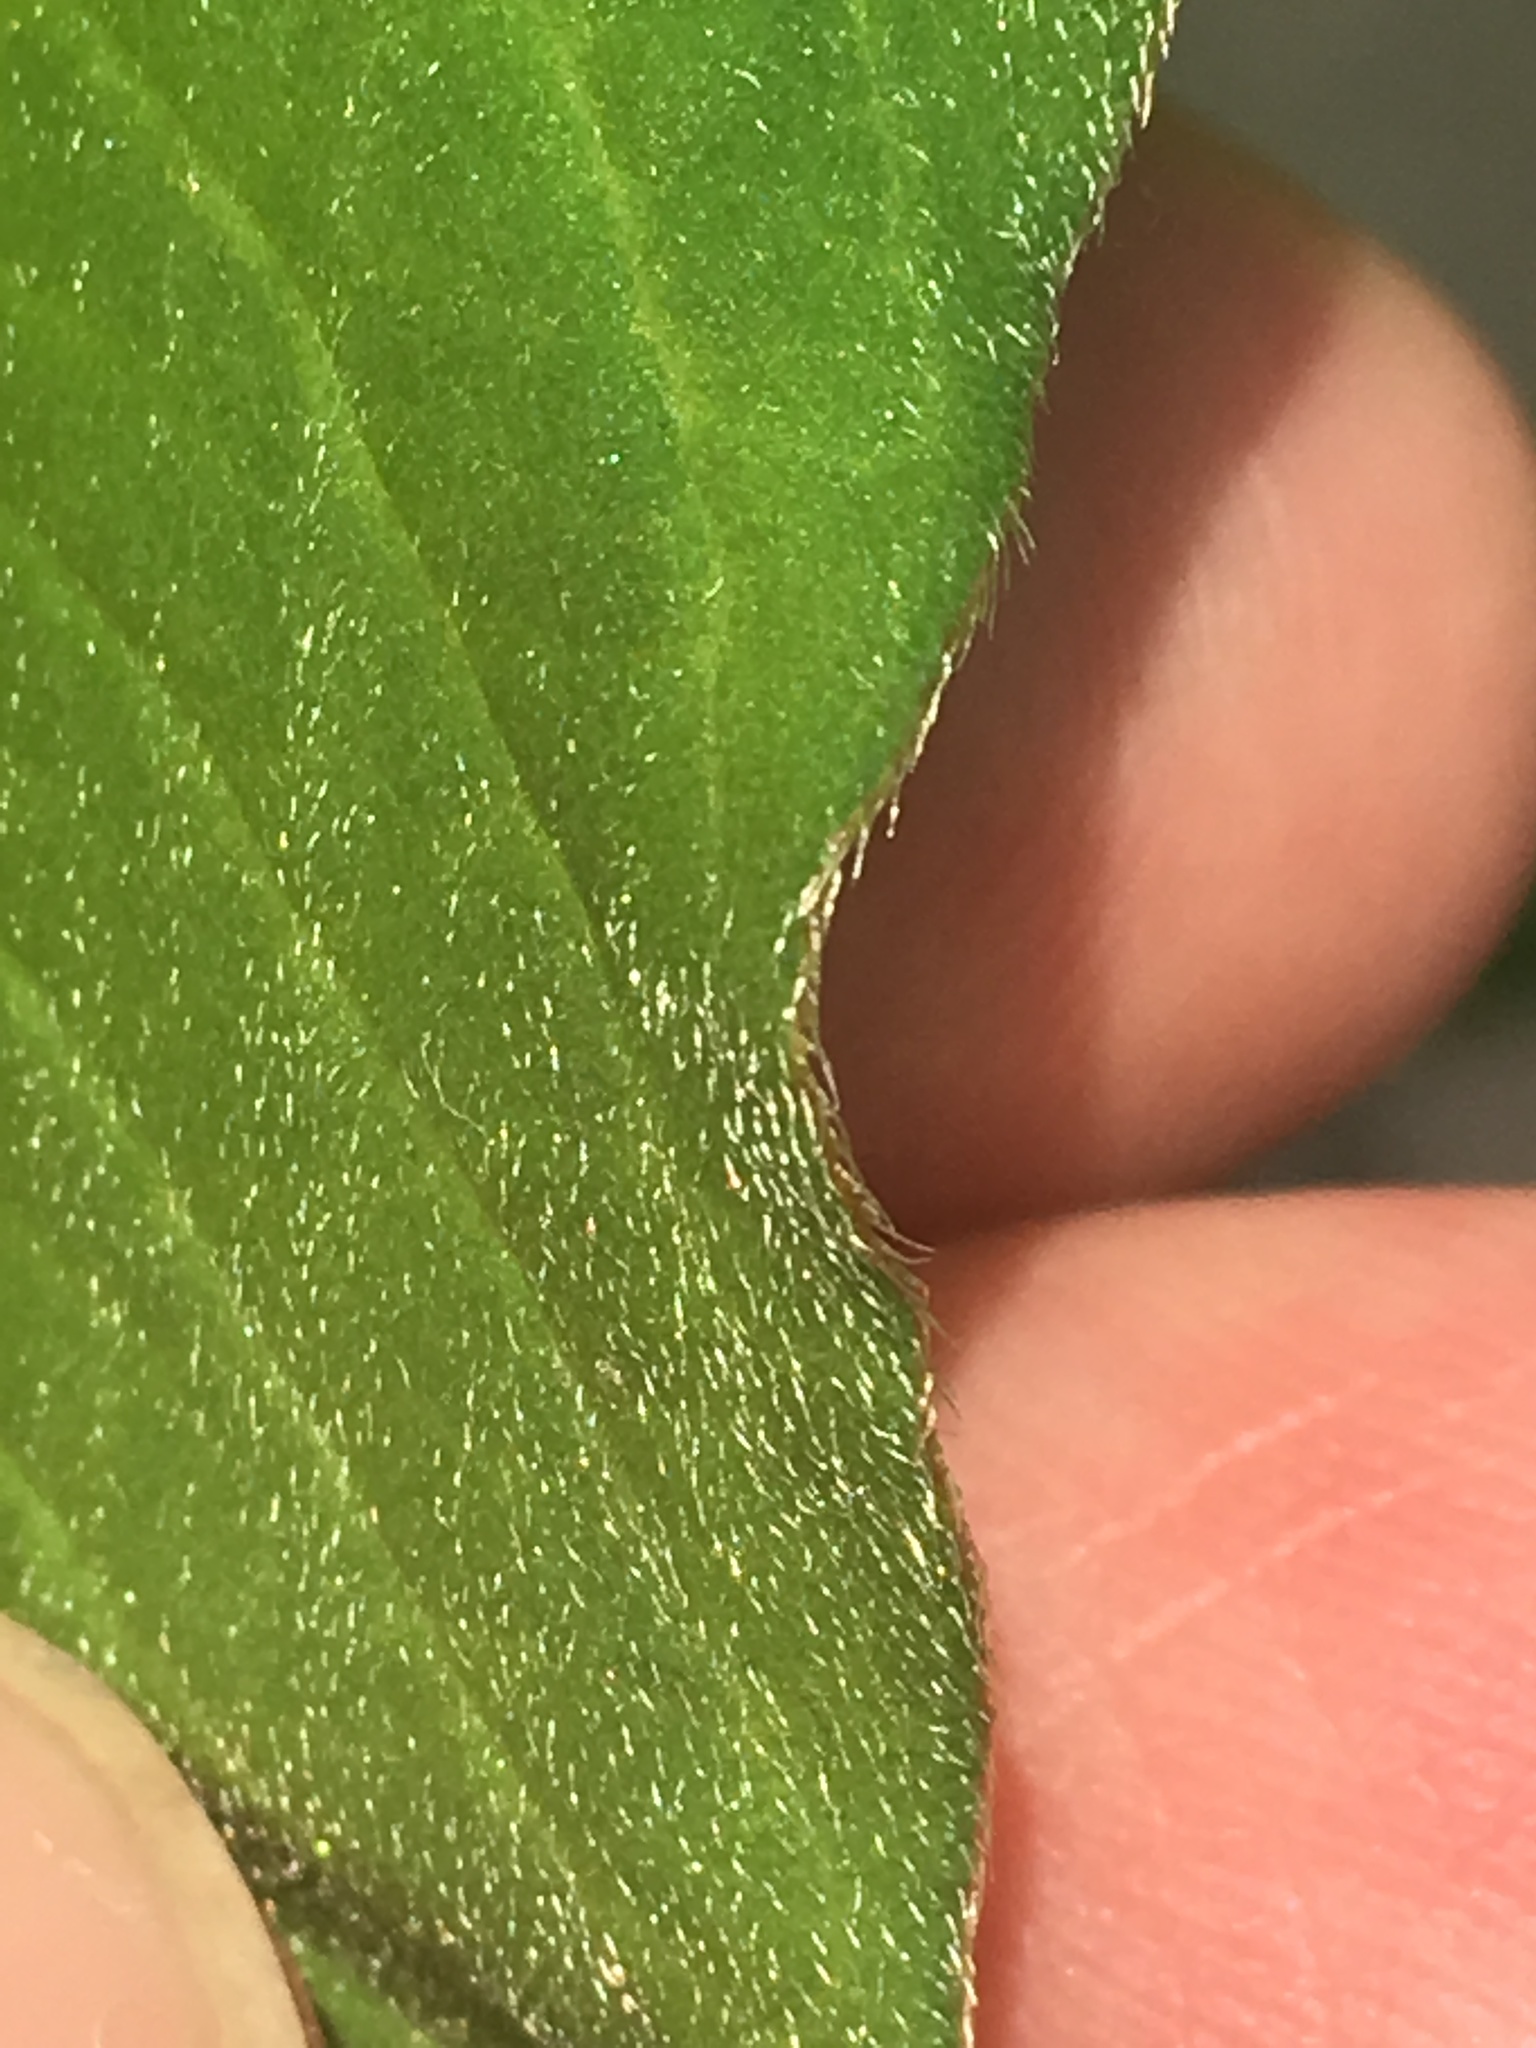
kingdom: Plantae
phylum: Tracheophyta
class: Magnoliopsida
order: Caryophyllales
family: Polygonaceae
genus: Persicaria
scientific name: Persicaria extremiorientalis
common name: Far-eastern smartweed
